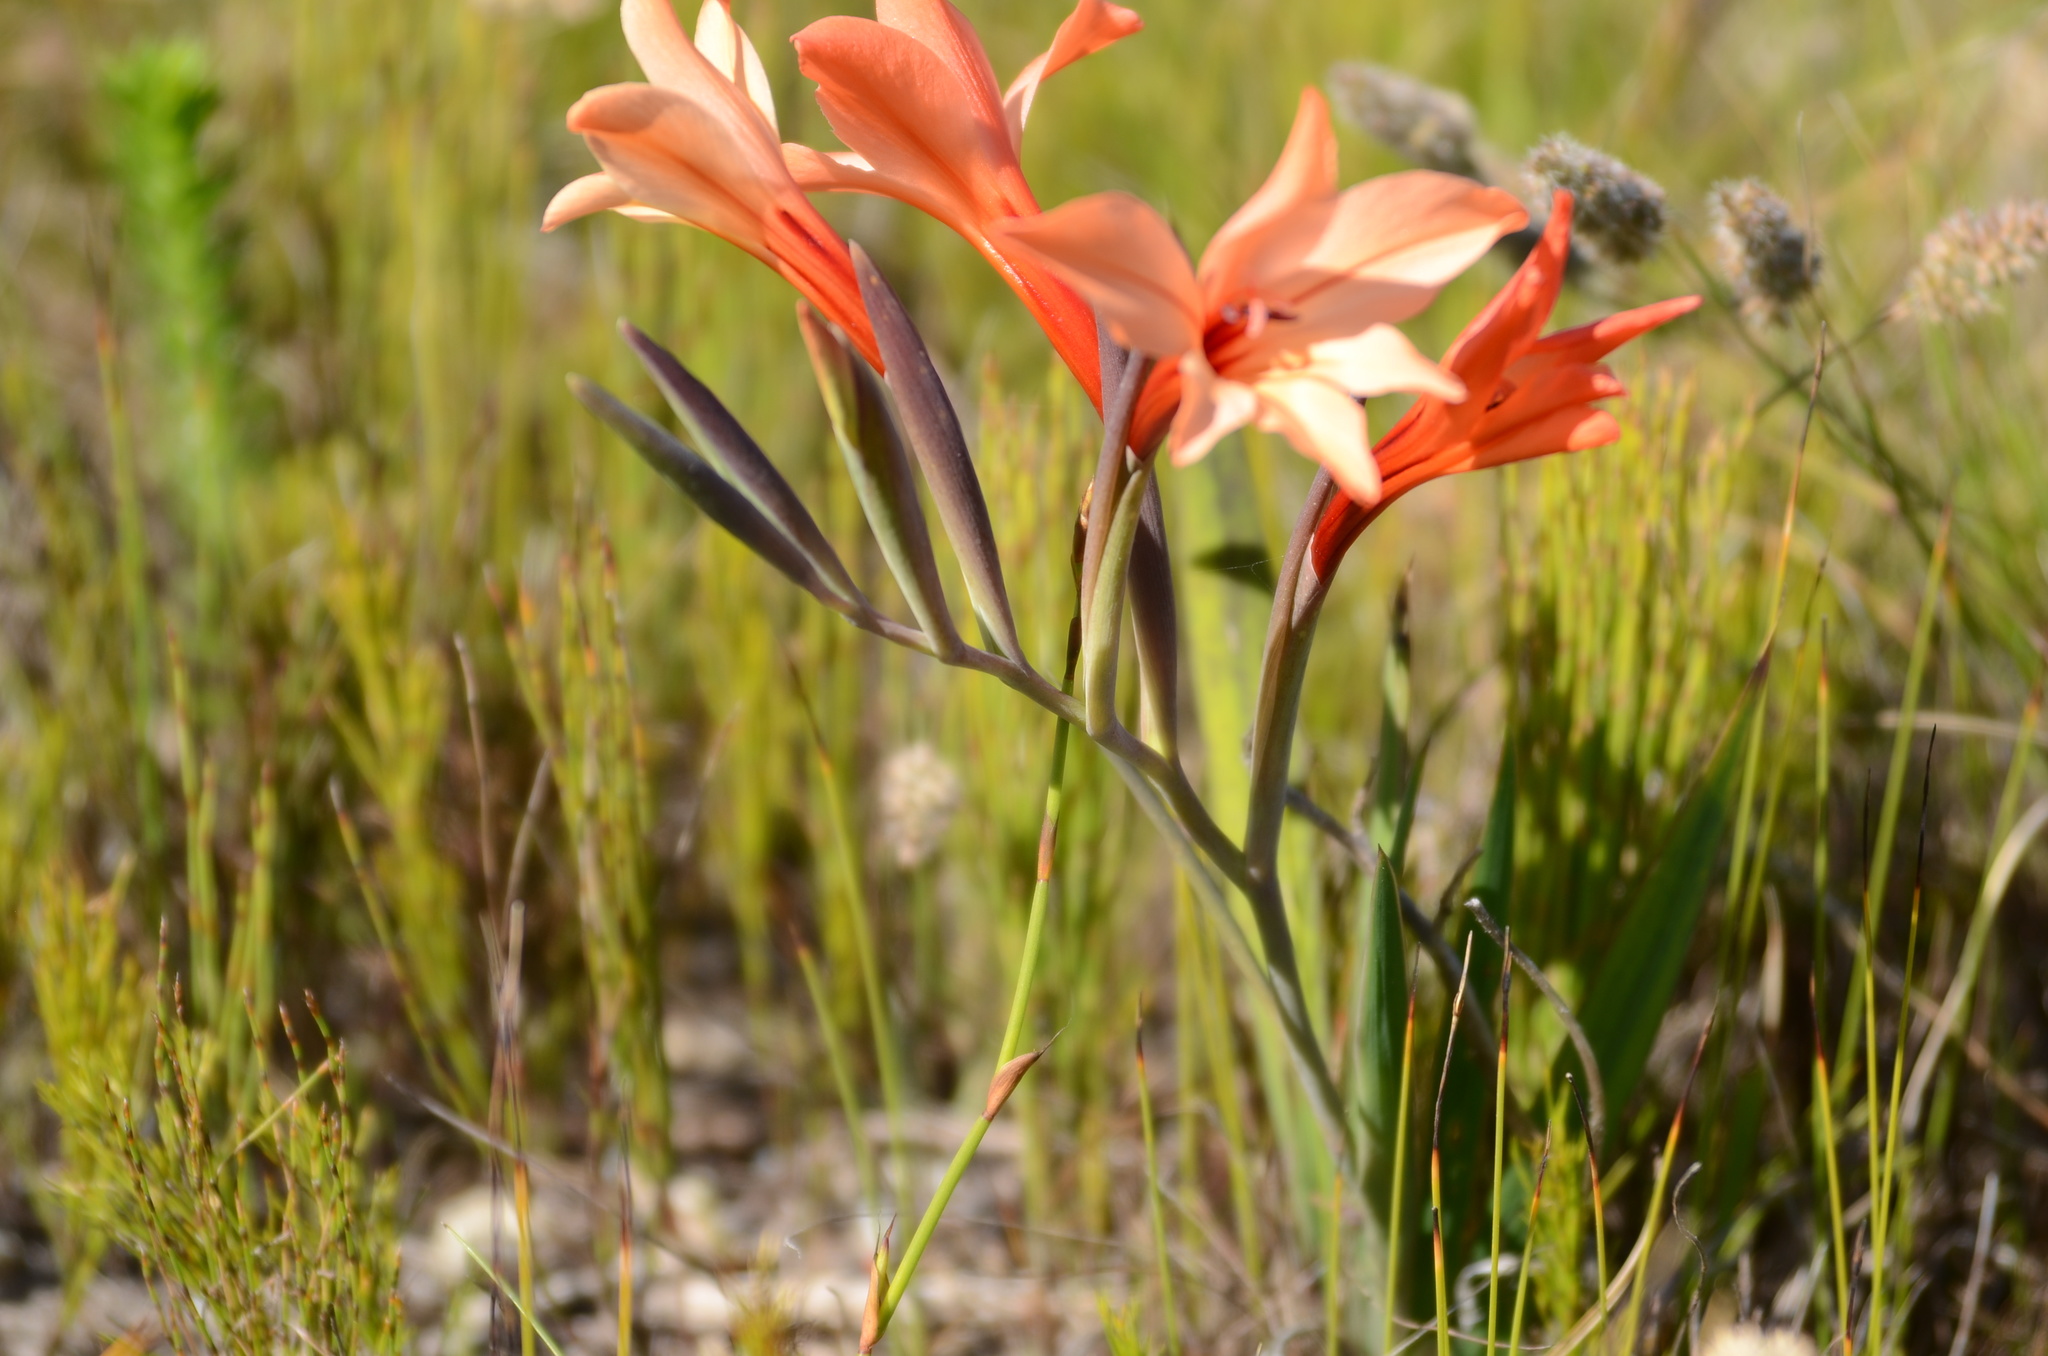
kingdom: Plantae
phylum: Tracheophyta
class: Liliopsida
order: Asparagales
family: Iridaceae
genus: Gladiolus
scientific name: Gladiolus miniatus
